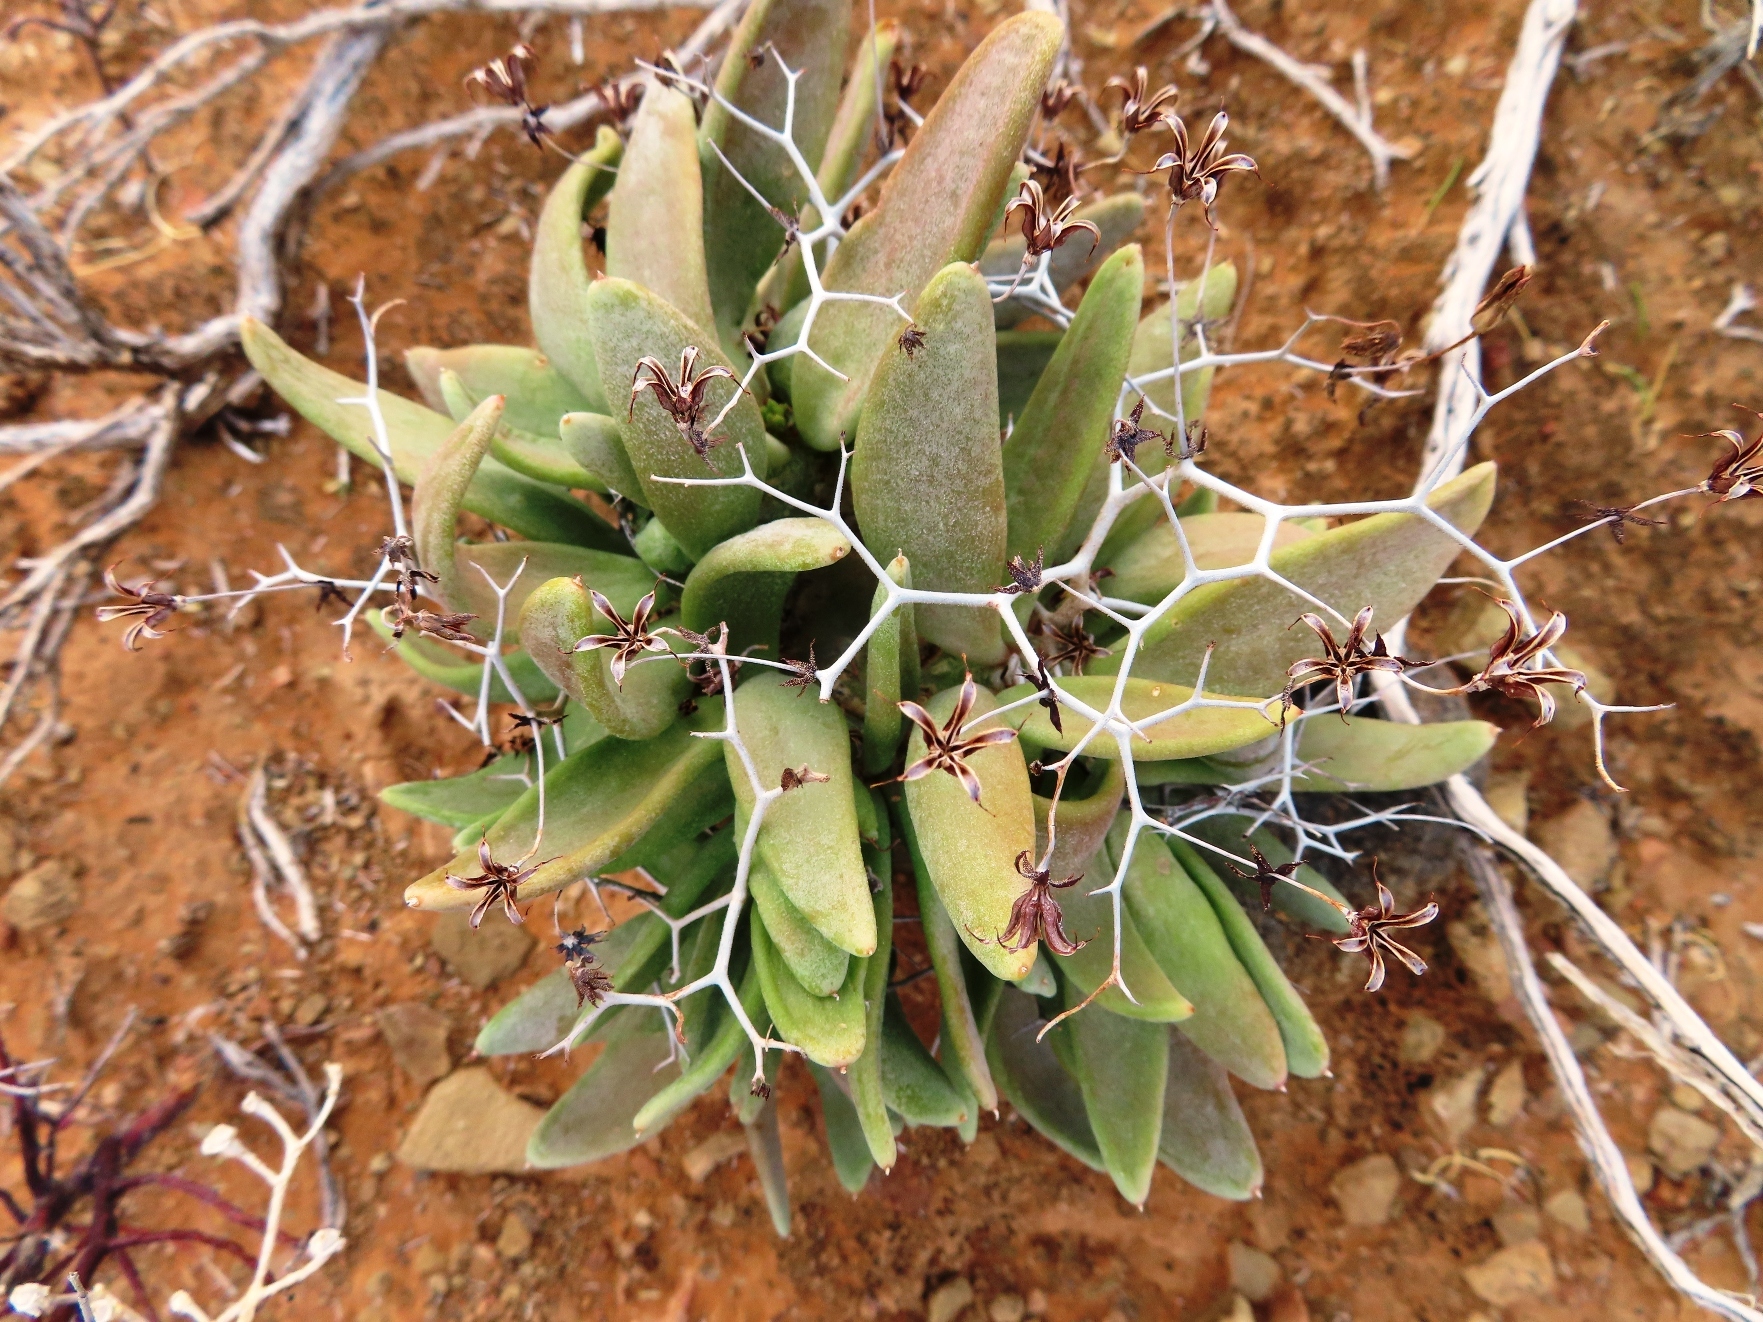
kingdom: Plantae
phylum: Tracheophyta
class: Magnoliopsida
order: Saxifragales
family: Crassulaceae
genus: Tylecodon
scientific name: Tylecodon reticulatus
